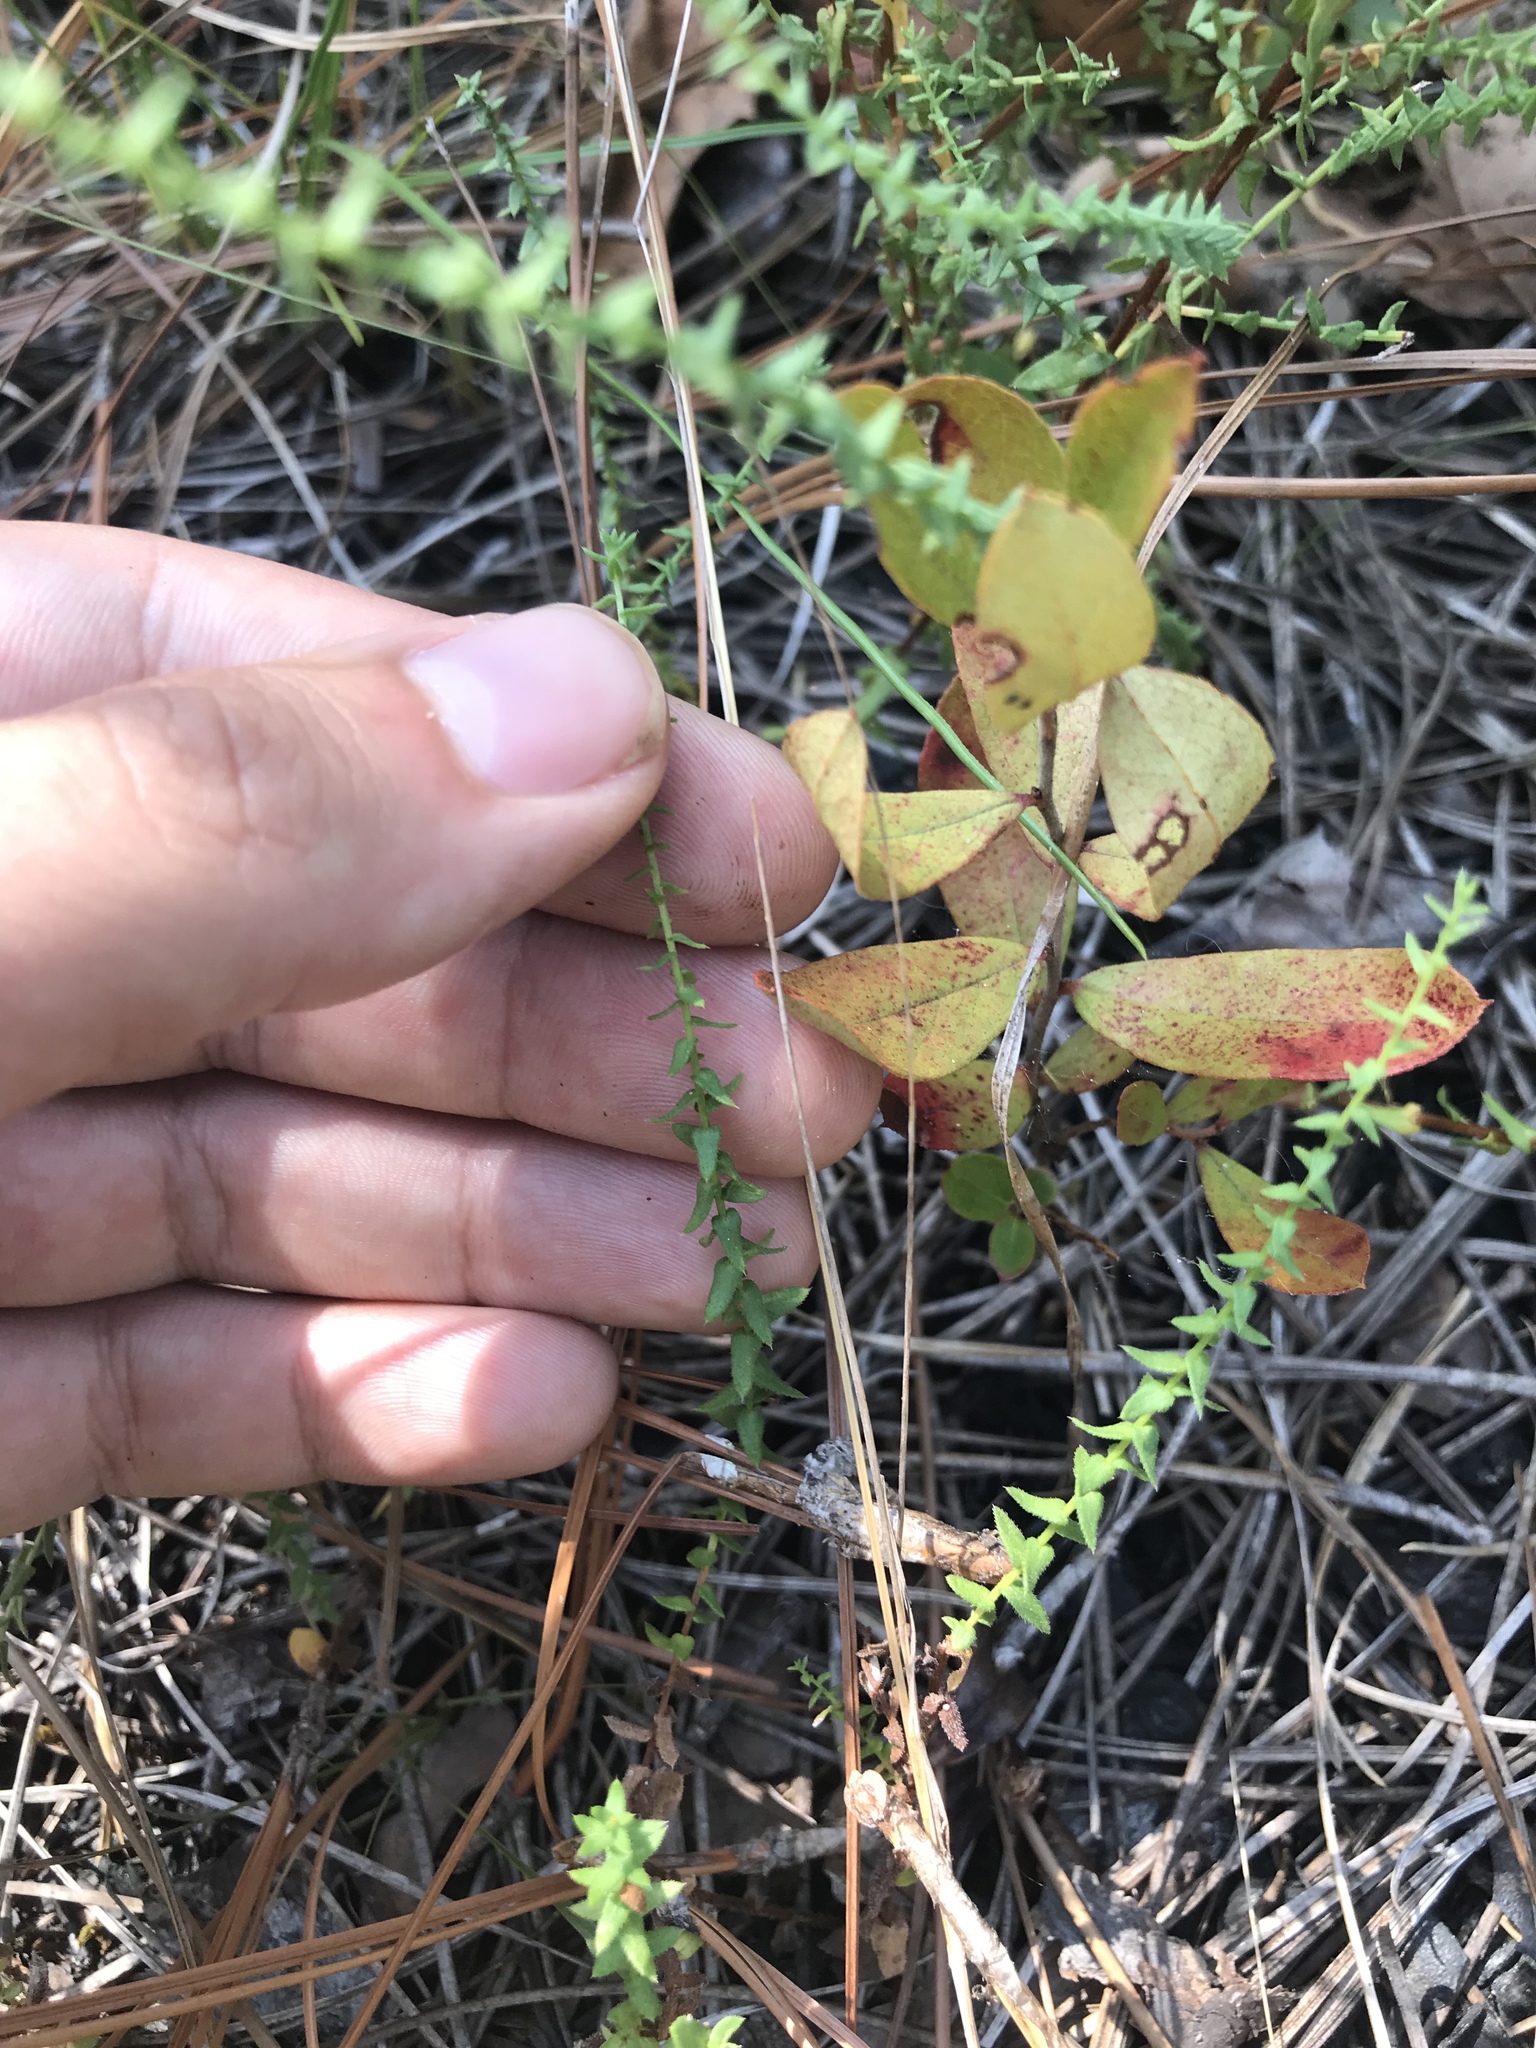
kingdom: Plantae
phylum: Tracheophyta
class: Magnoliopsida
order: Asterales
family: Asteraceae
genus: Symphyotrichum
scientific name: Symphyotrichum walteri
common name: Walter's aster
